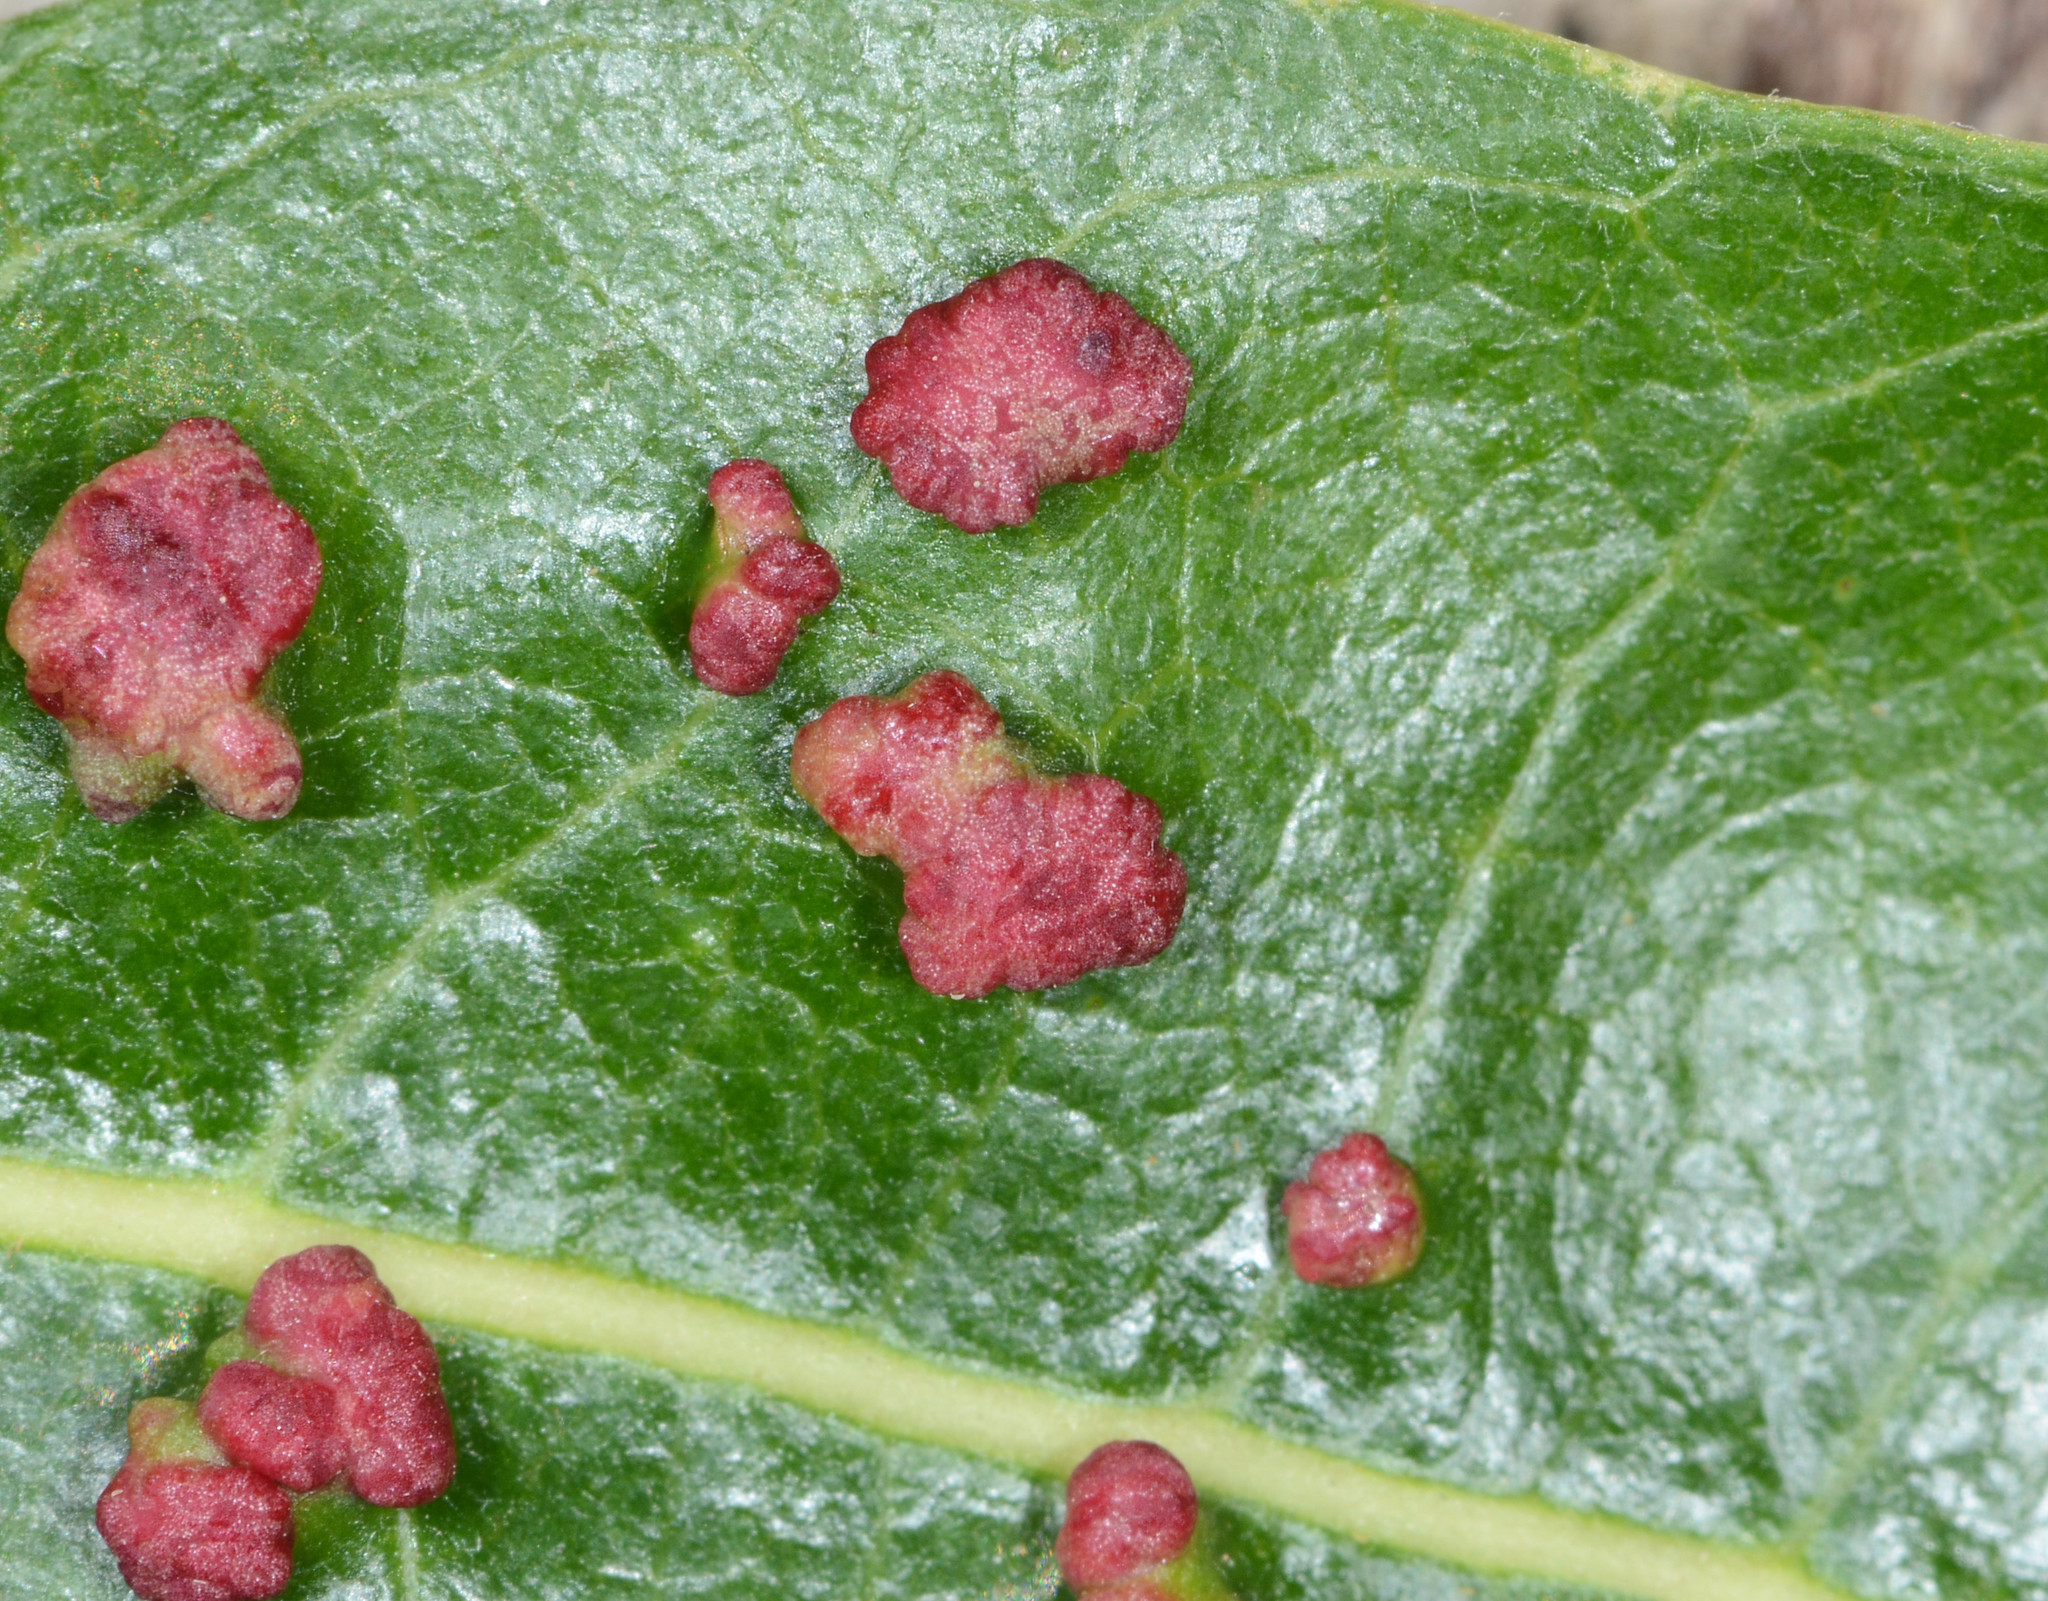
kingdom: Animalia
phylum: Arthropoda
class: Arachnida
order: Trombidiformes
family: Eriophyidae
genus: Aculus
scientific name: Aculus tetanothrix
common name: Willow bead gall mite
